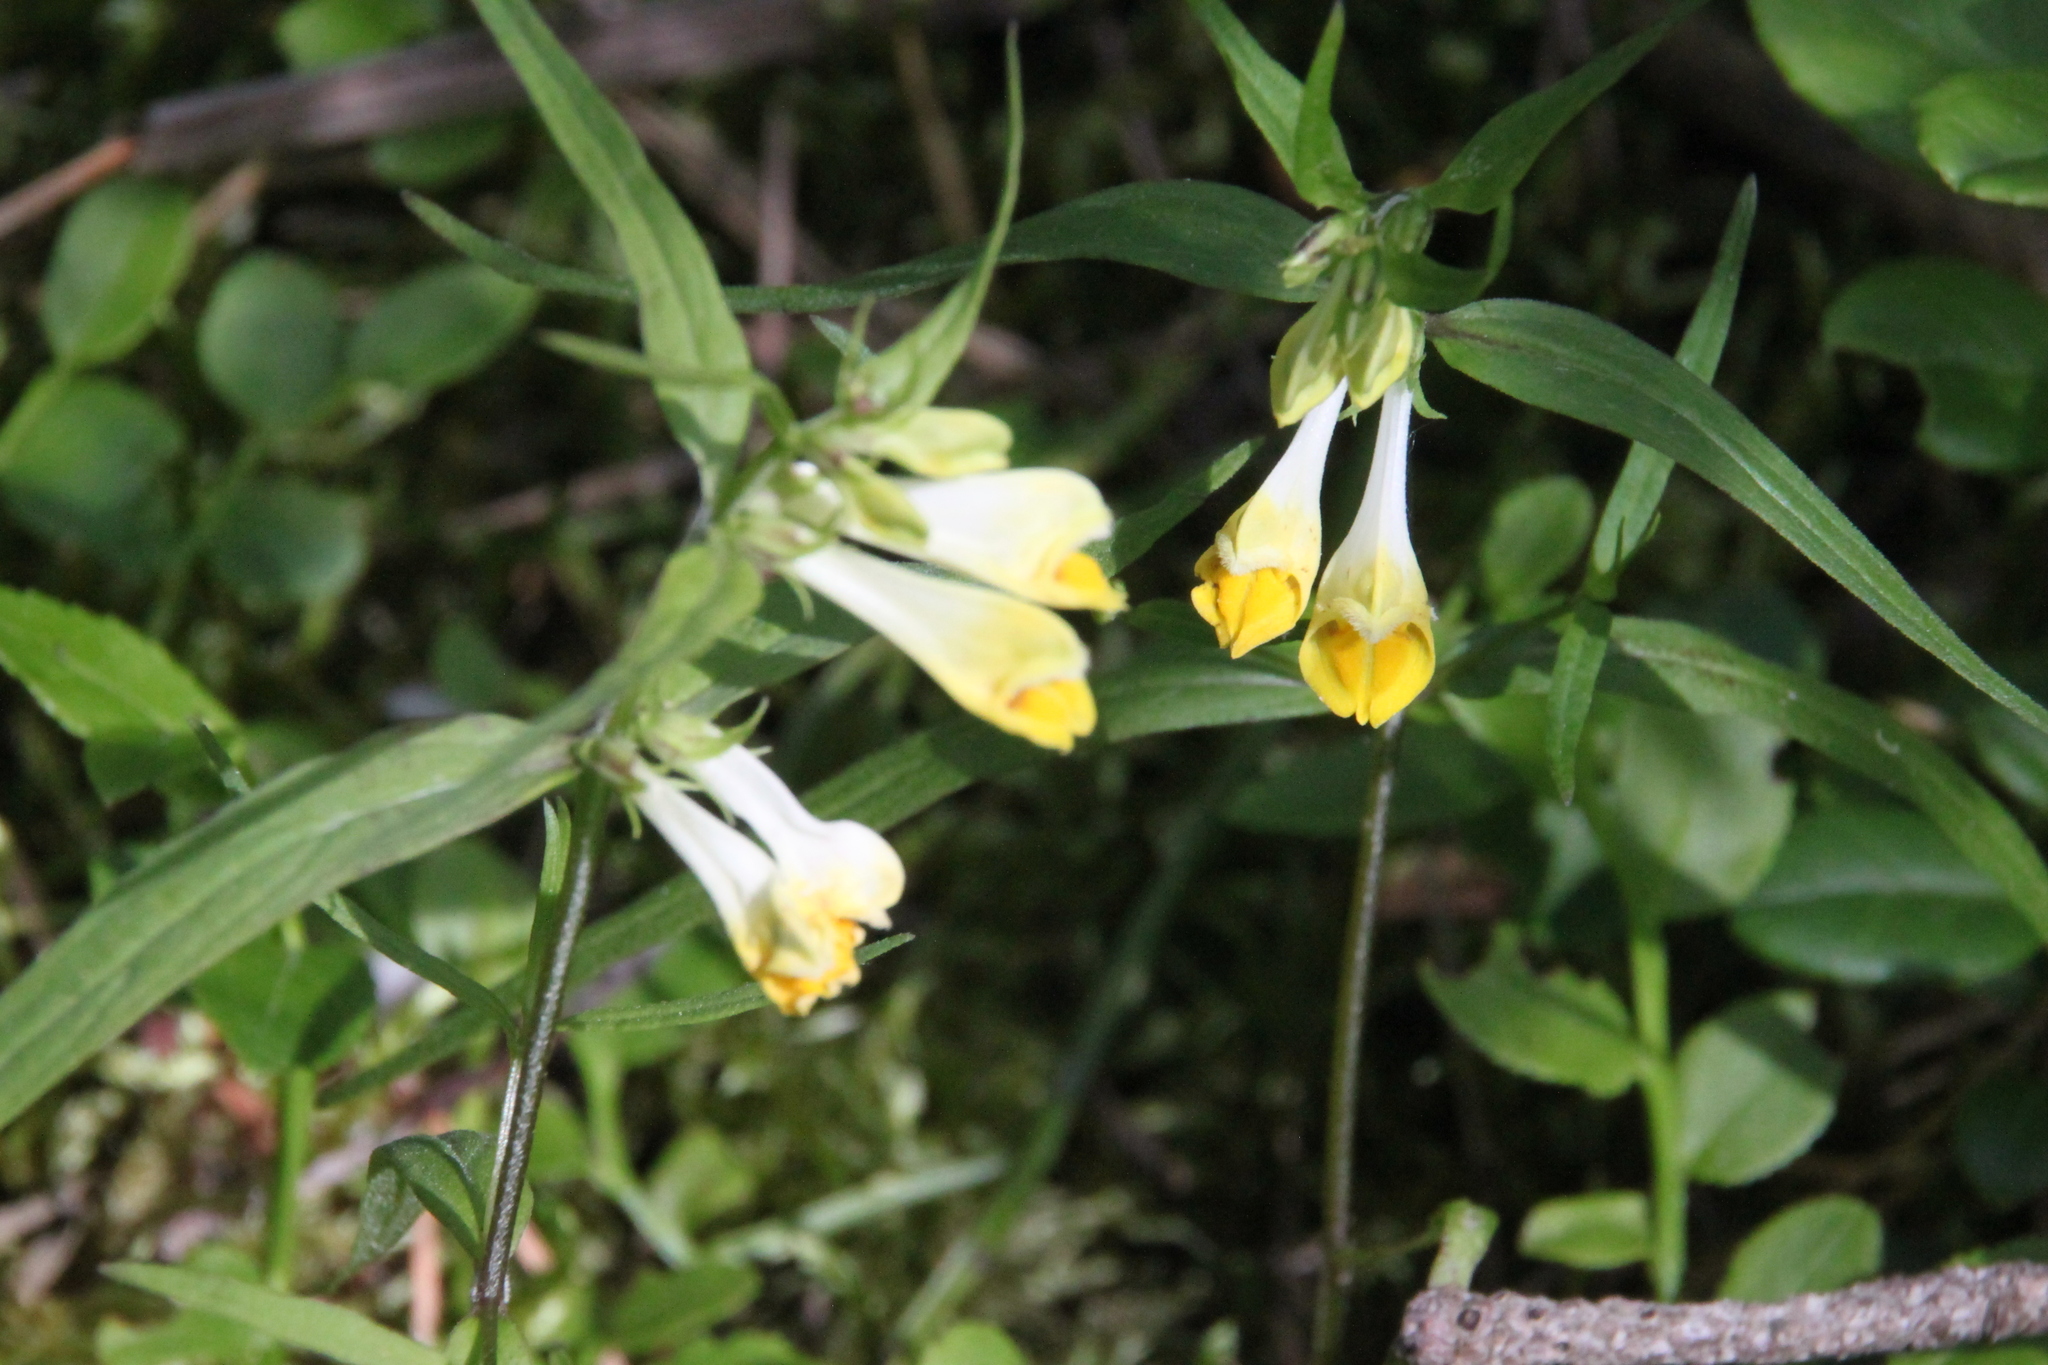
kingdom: Plantae
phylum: Tracheophyta
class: Magnoliopsida
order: Lamiales
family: Orobanchaceae
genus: Melampyrum
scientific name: Melampyrum pratense
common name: Common cow-wheat
